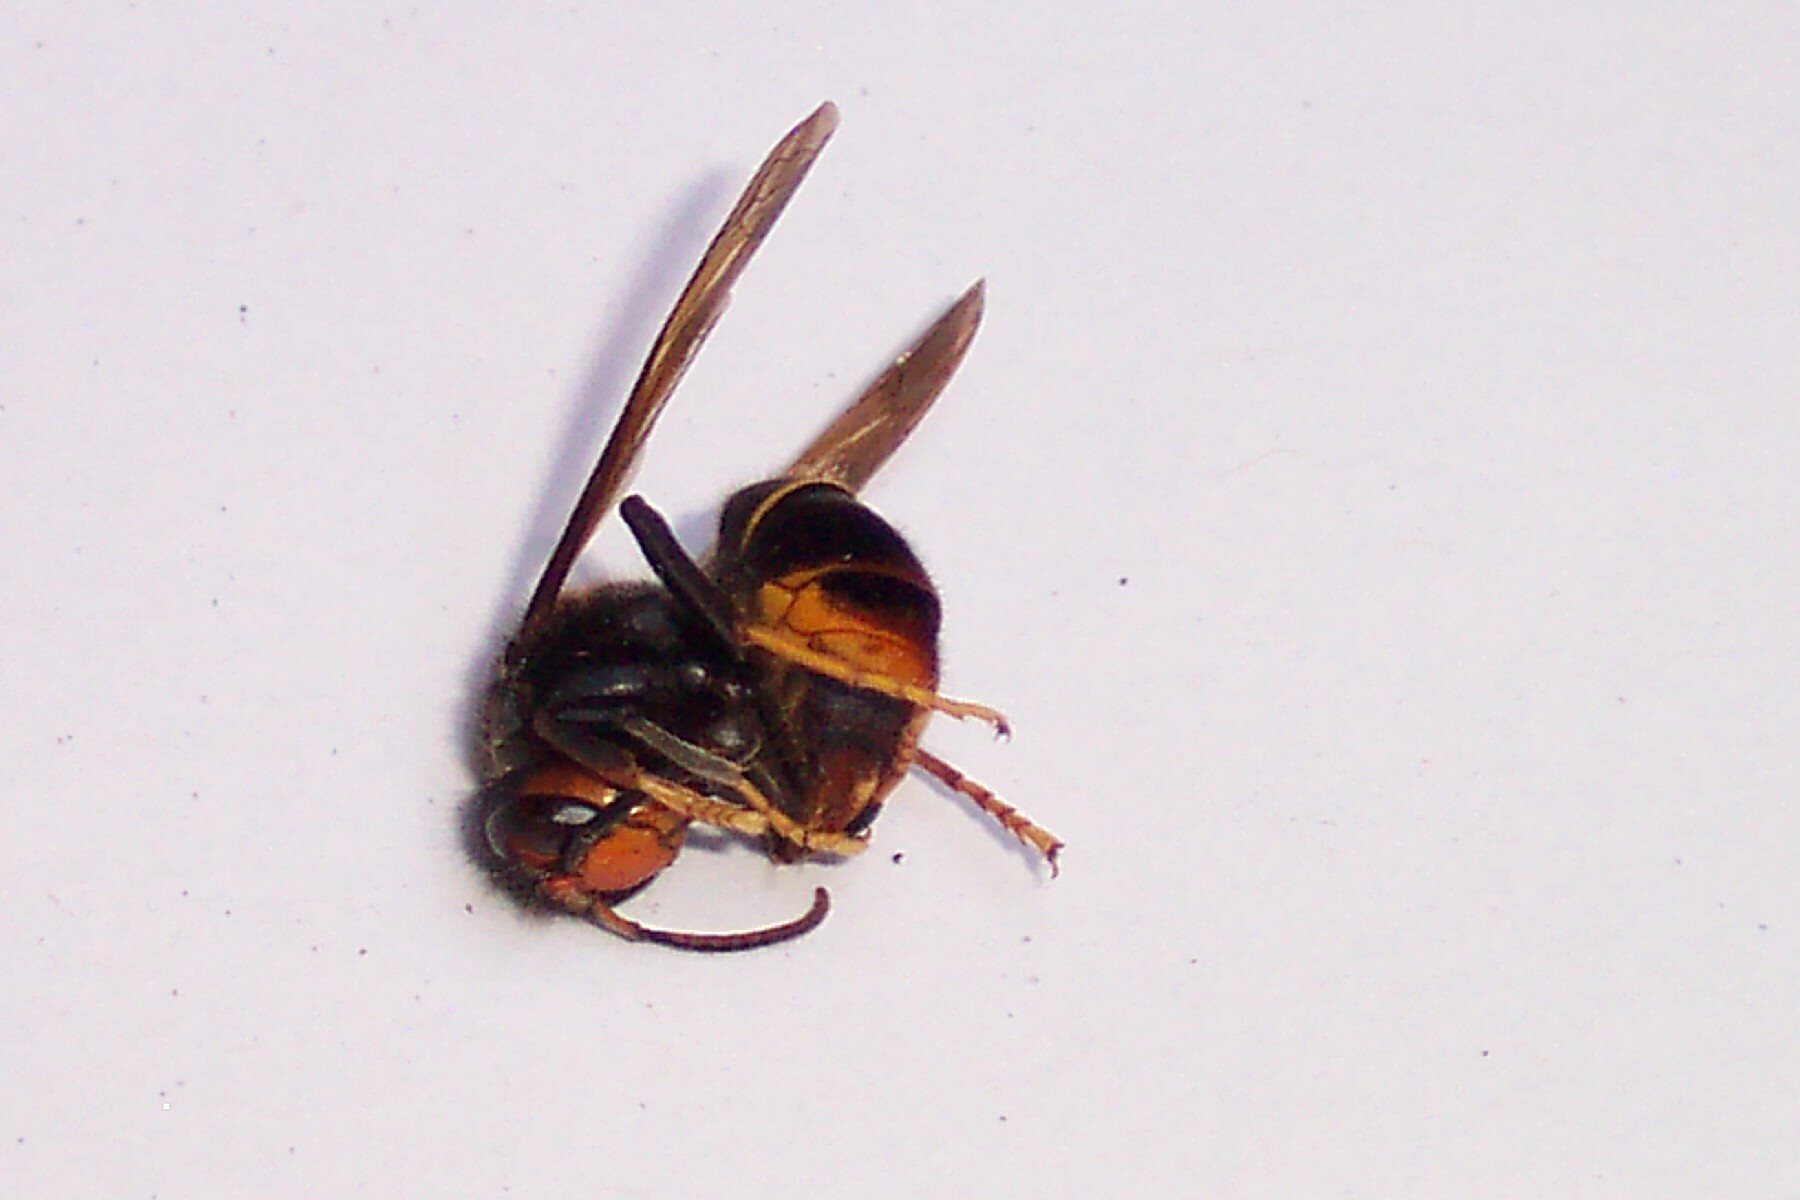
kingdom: Animalia
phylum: Arthropoda
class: Insecta
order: Hymenoptera
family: Vespidae
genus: Vespa
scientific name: Vespa velutina
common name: Asian hornet
